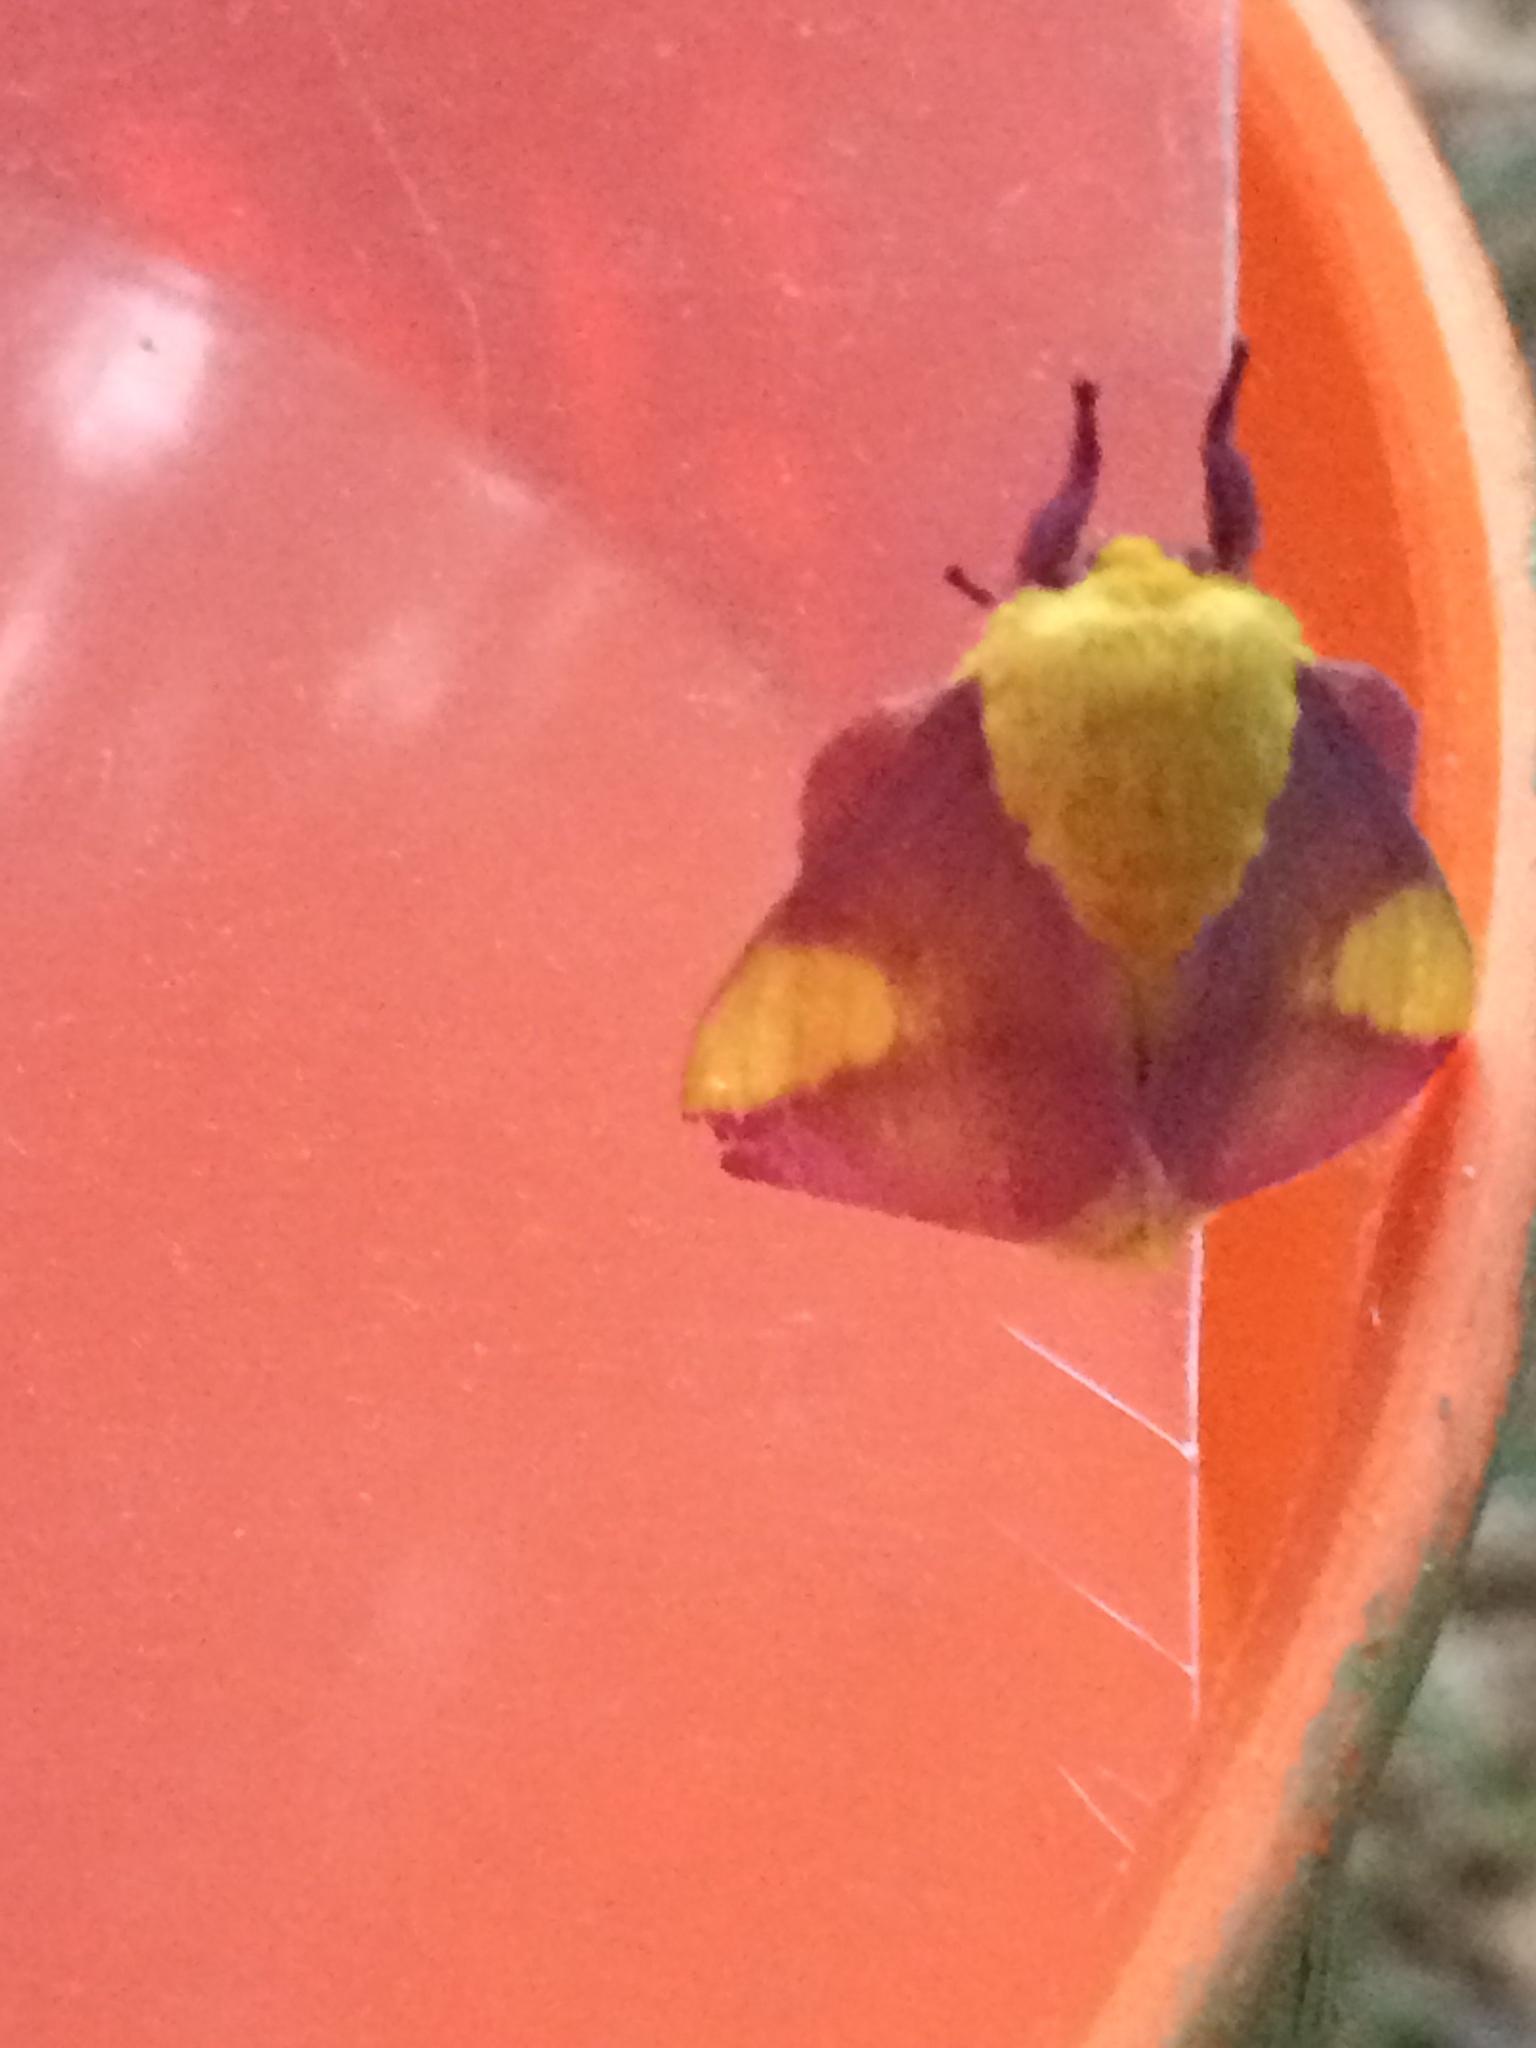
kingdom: Animalia
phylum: Arthropoda
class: Insecta
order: Lepidoptera
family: Saturniidae
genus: Dryocampa
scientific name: Dryocampa rubicunda
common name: Rosy maple moth
